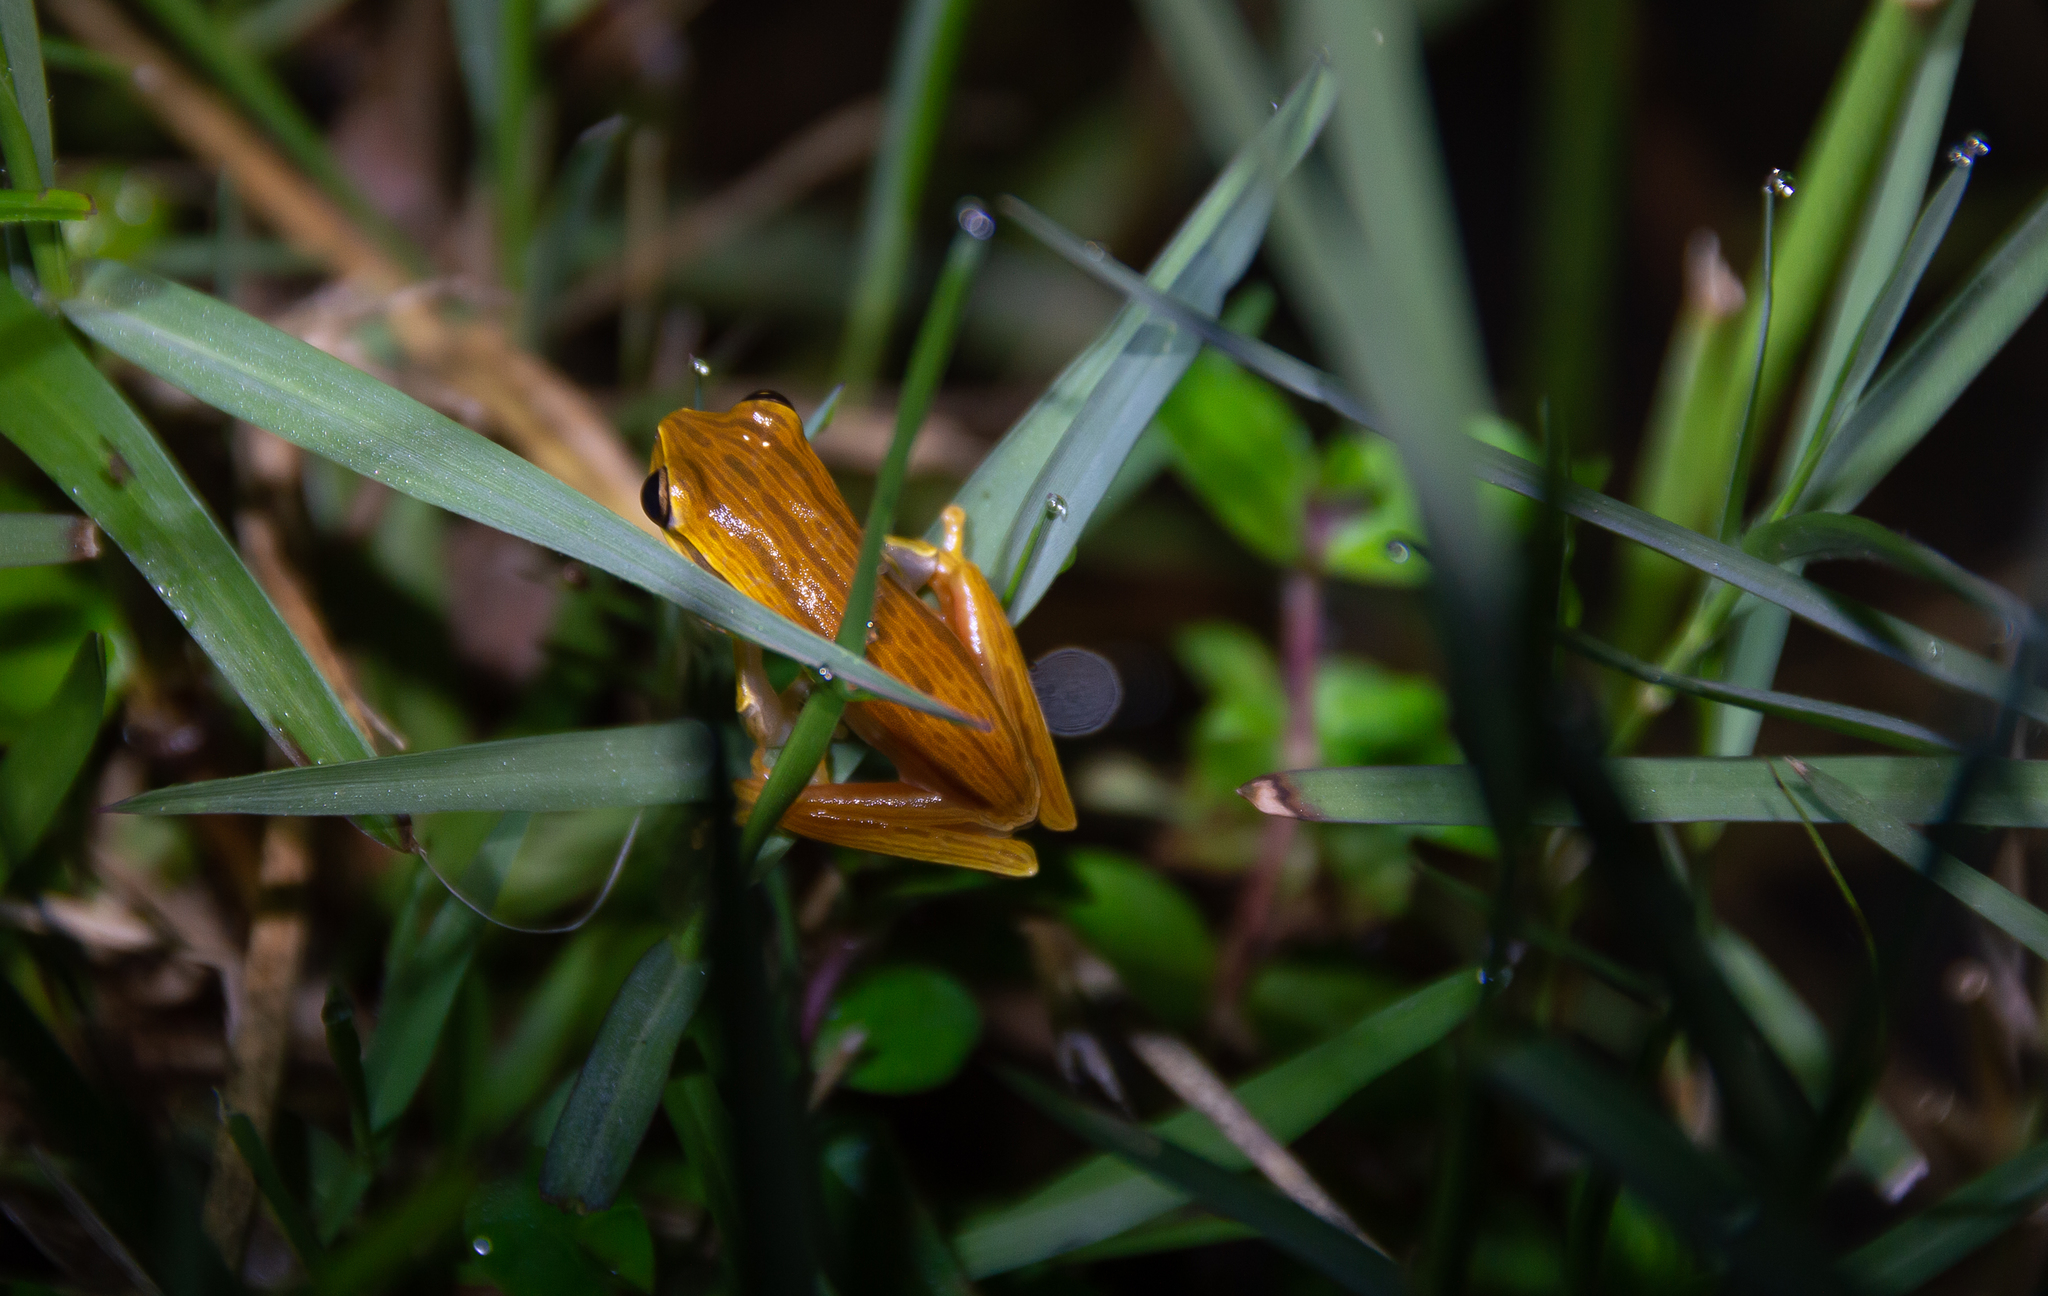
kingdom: Animalia
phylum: Chordata
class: Amphibia
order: Anura
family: Hylidae
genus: Boana
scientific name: Boana polytaenia
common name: Cope's eastern paraguay treefrog
